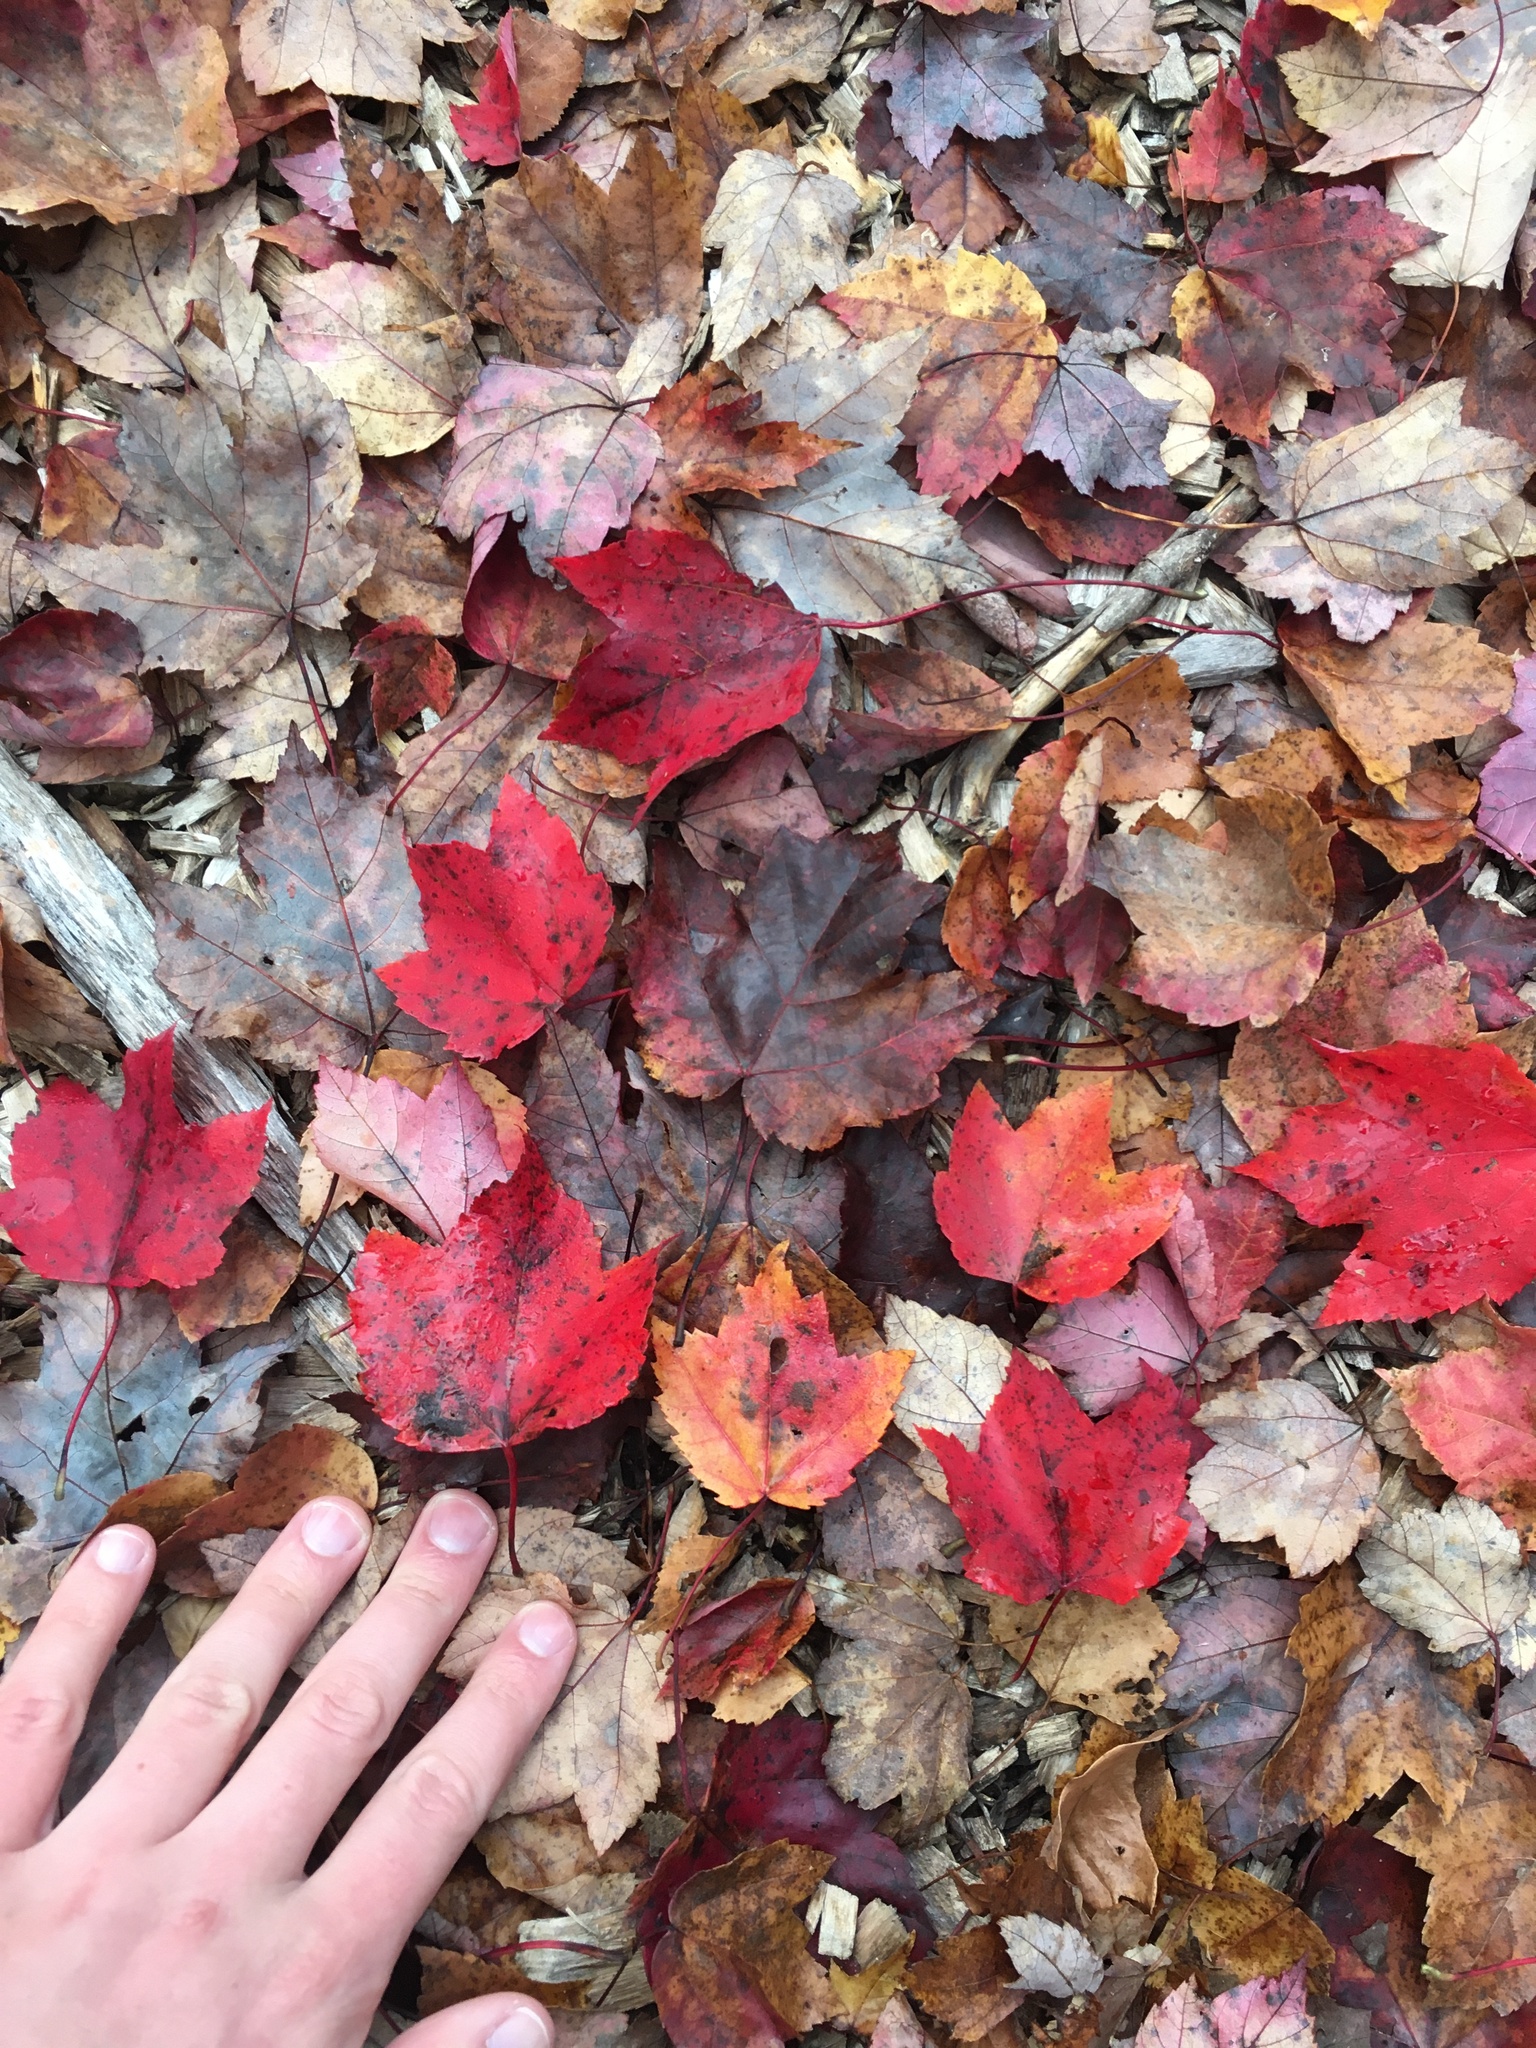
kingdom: Plantae
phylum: Tracheophyta
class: Magnoliopsida
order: Sapindales
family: Sapindaceae
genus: Acer
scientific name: Acer rubrum
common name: Red maple
